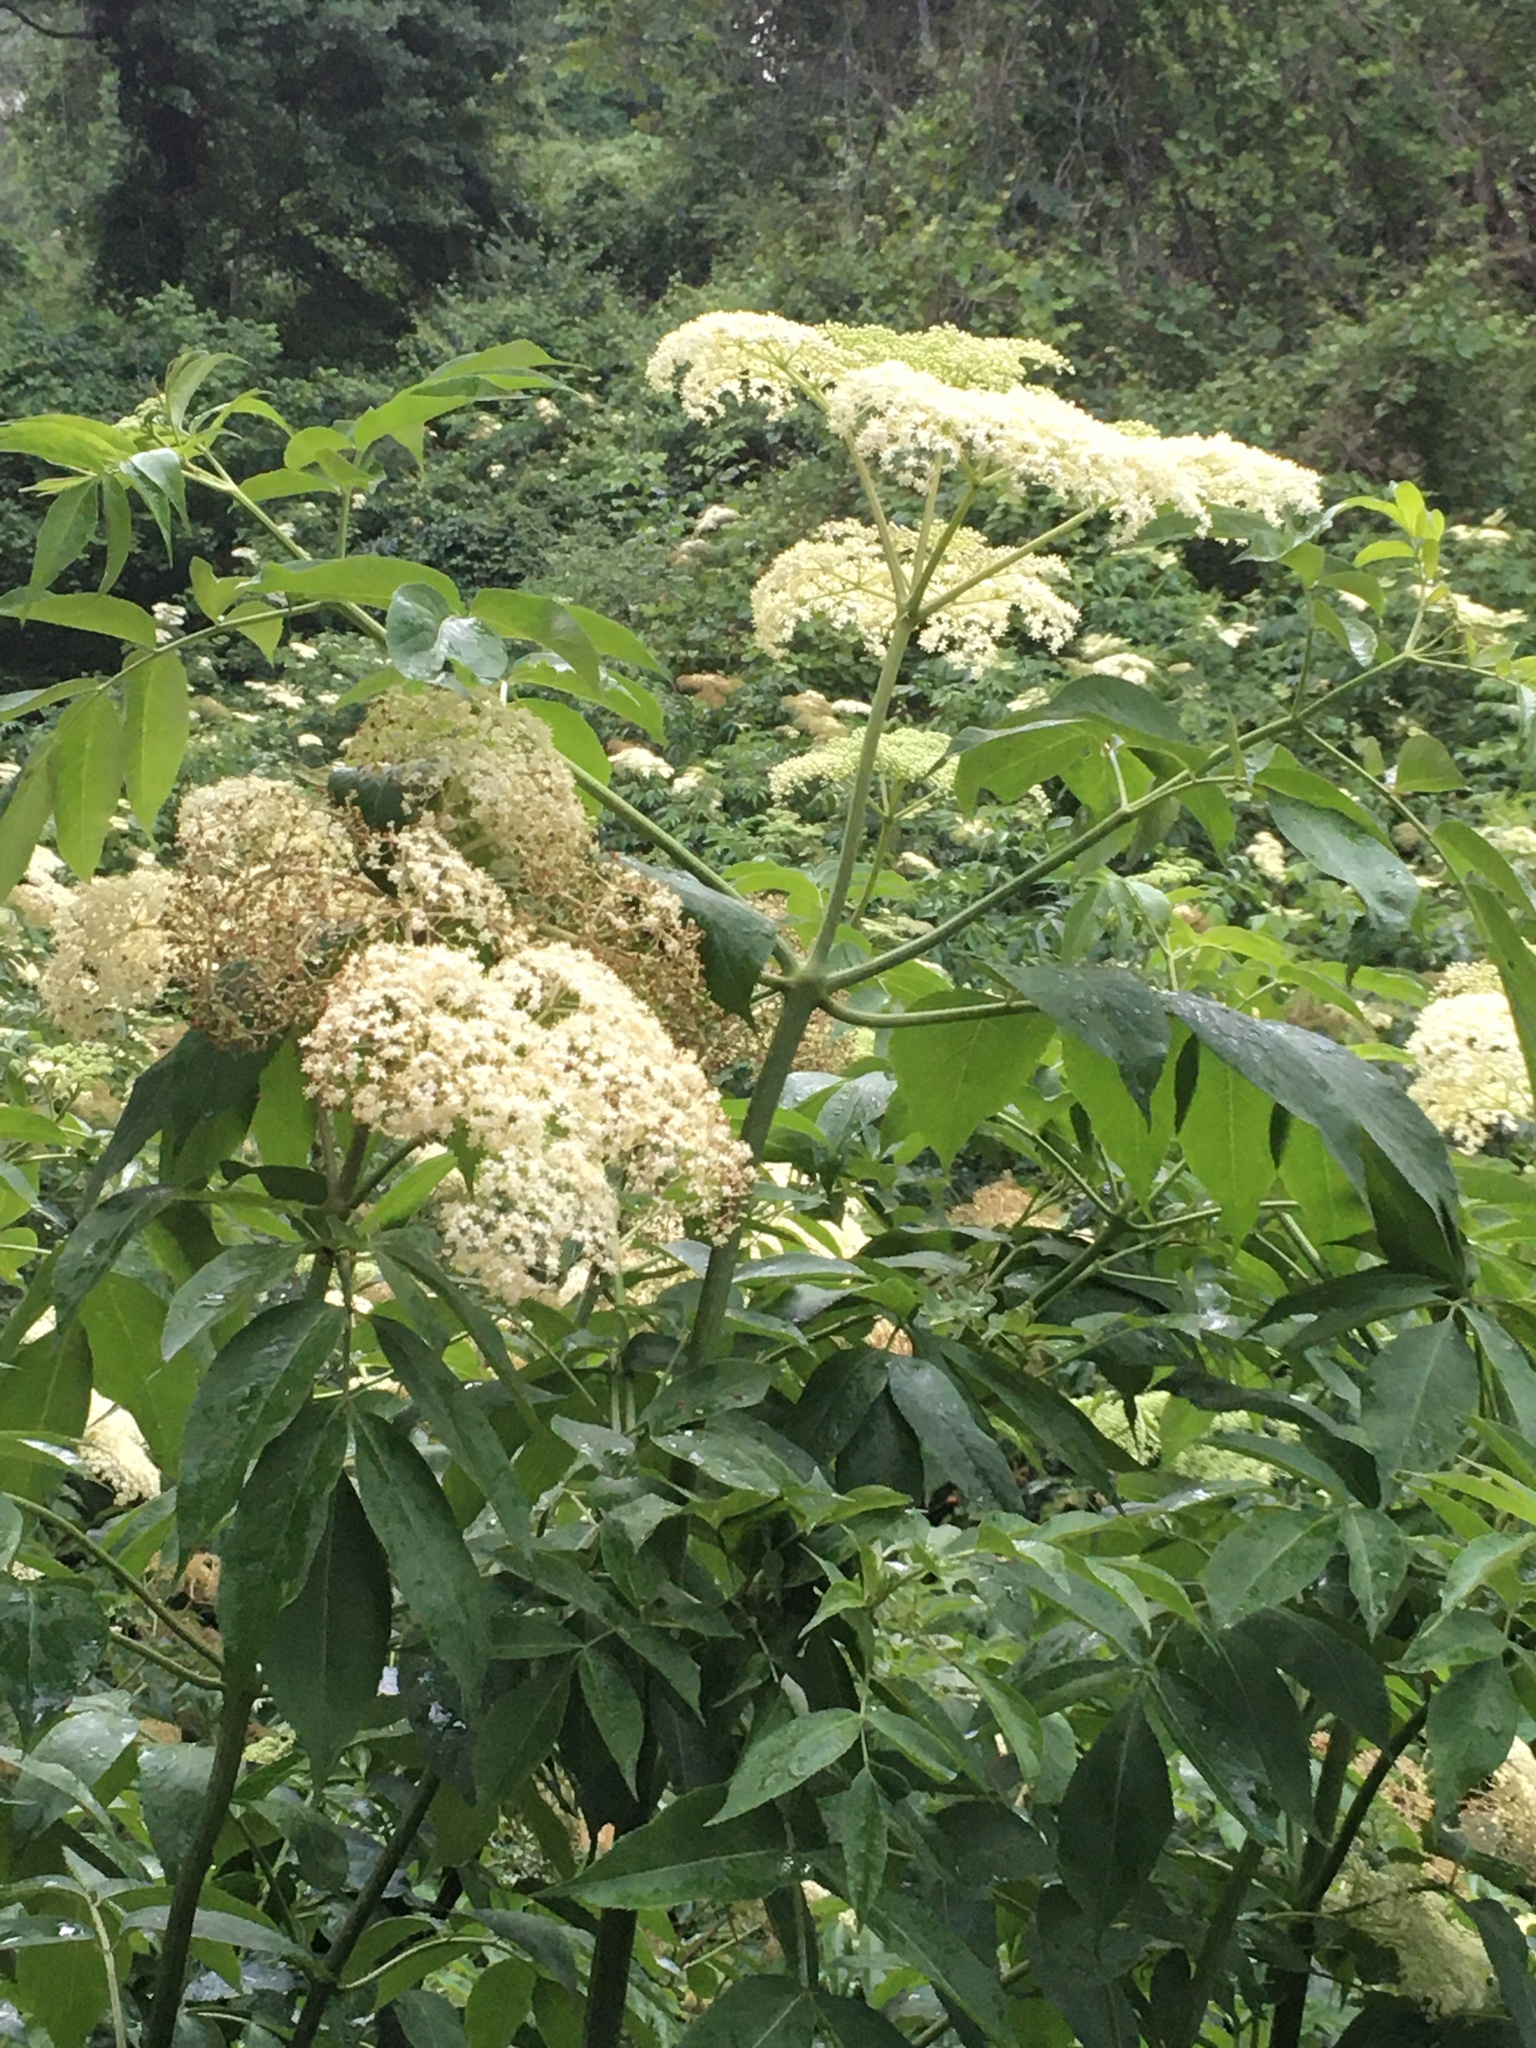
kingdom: Plantae
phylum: Tracheophyta
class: Magnoliopsida
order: Dipsacales
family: Viburnaceae
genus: Sambucus
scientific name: Sambucus canadensis
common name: American elder
